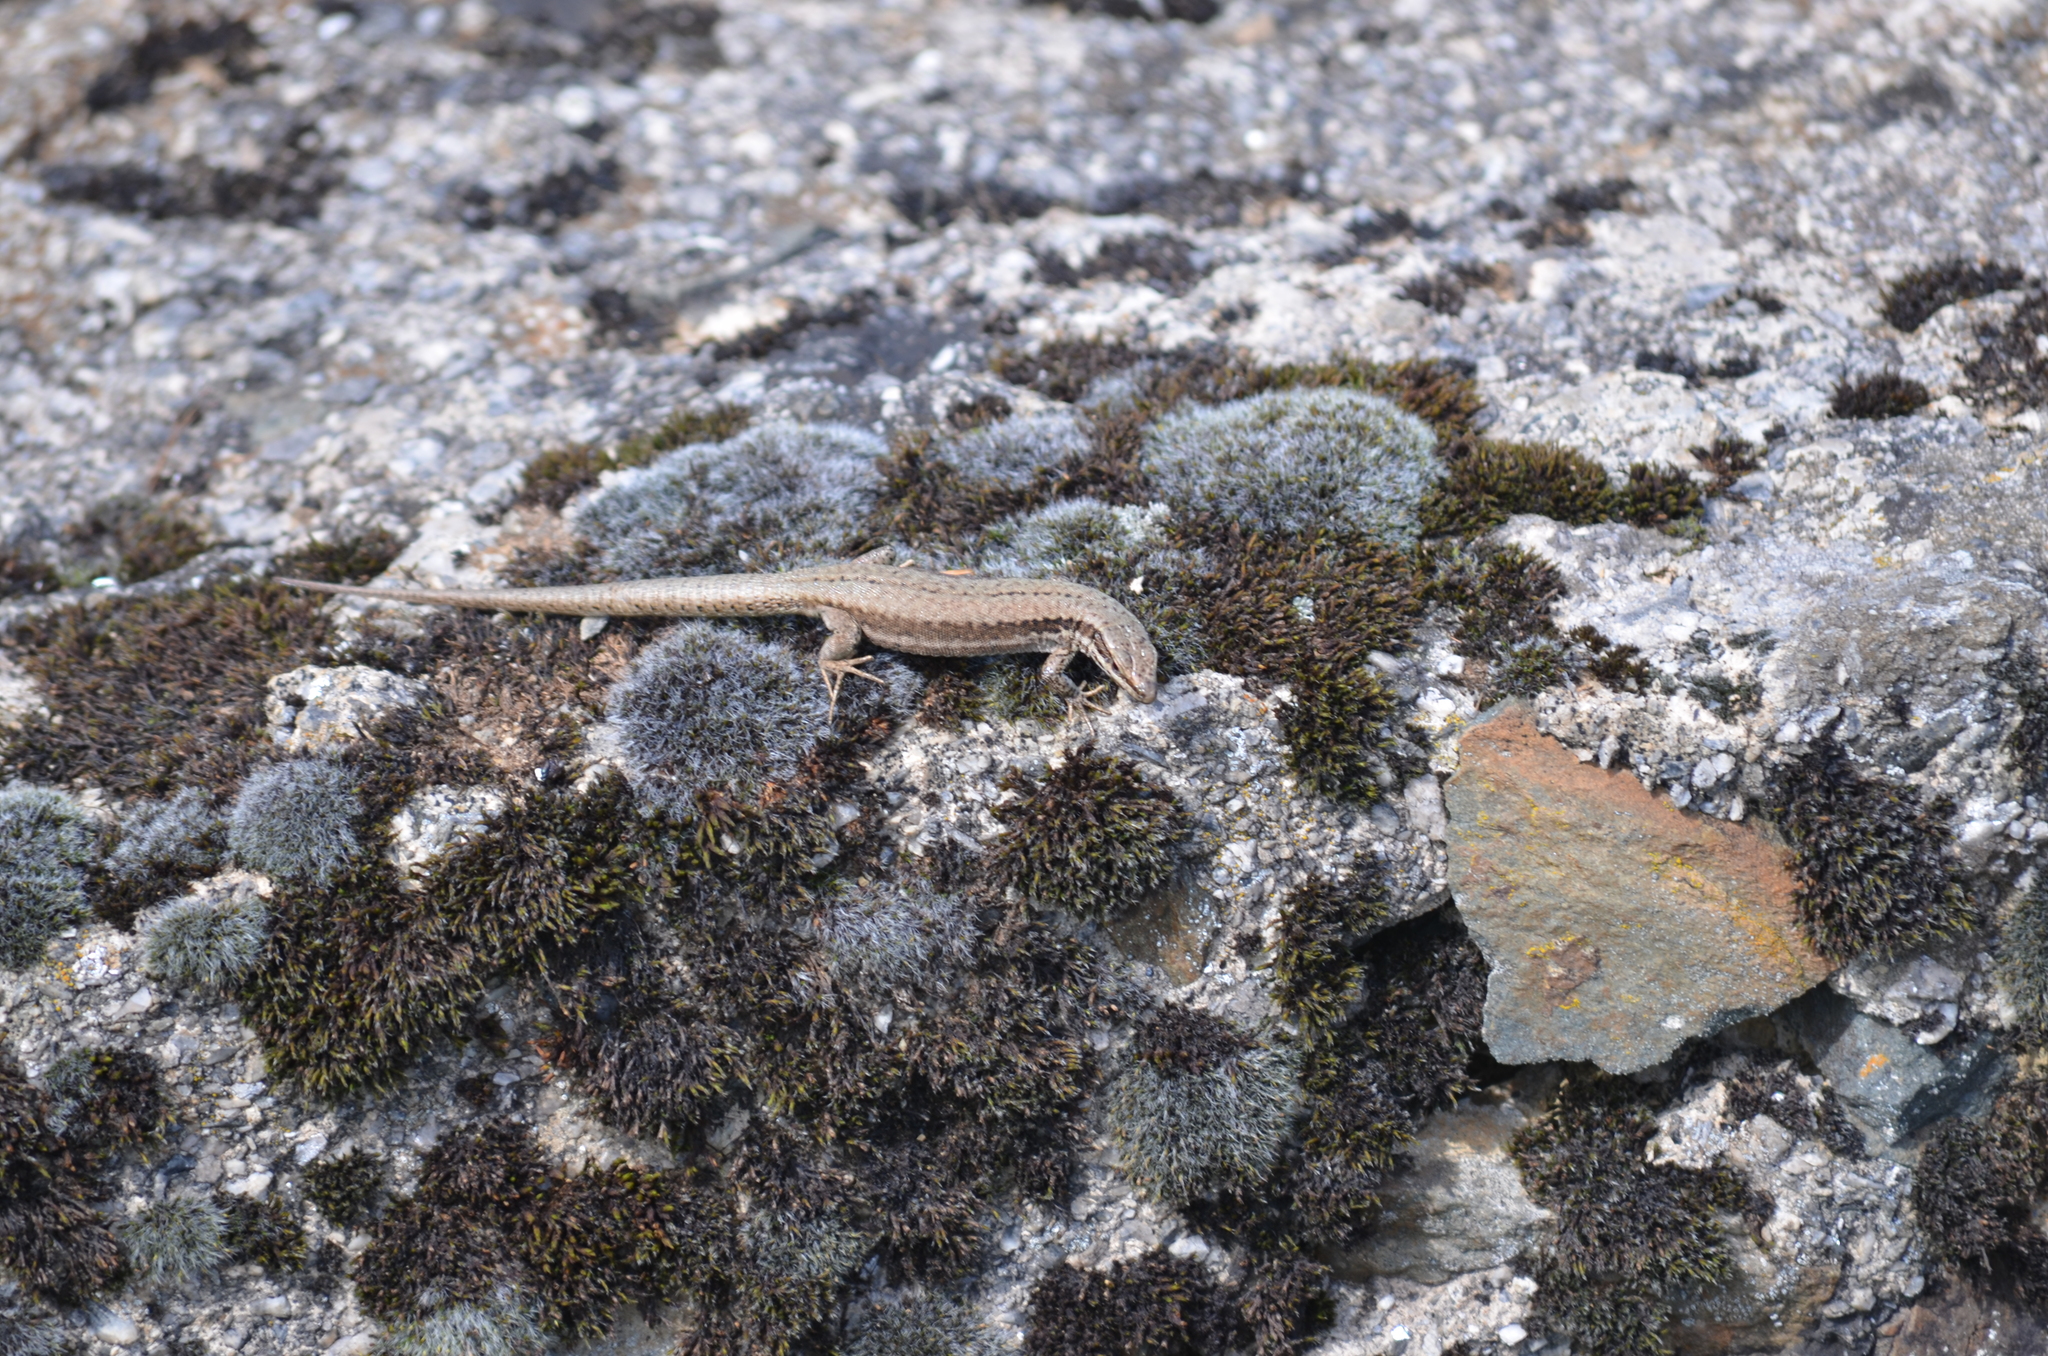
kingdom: Animalia
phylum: Chordata
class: Squamata
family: Lacertidae
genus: Podarcis
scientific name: Podarcis muralis
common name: Common wall lizard
